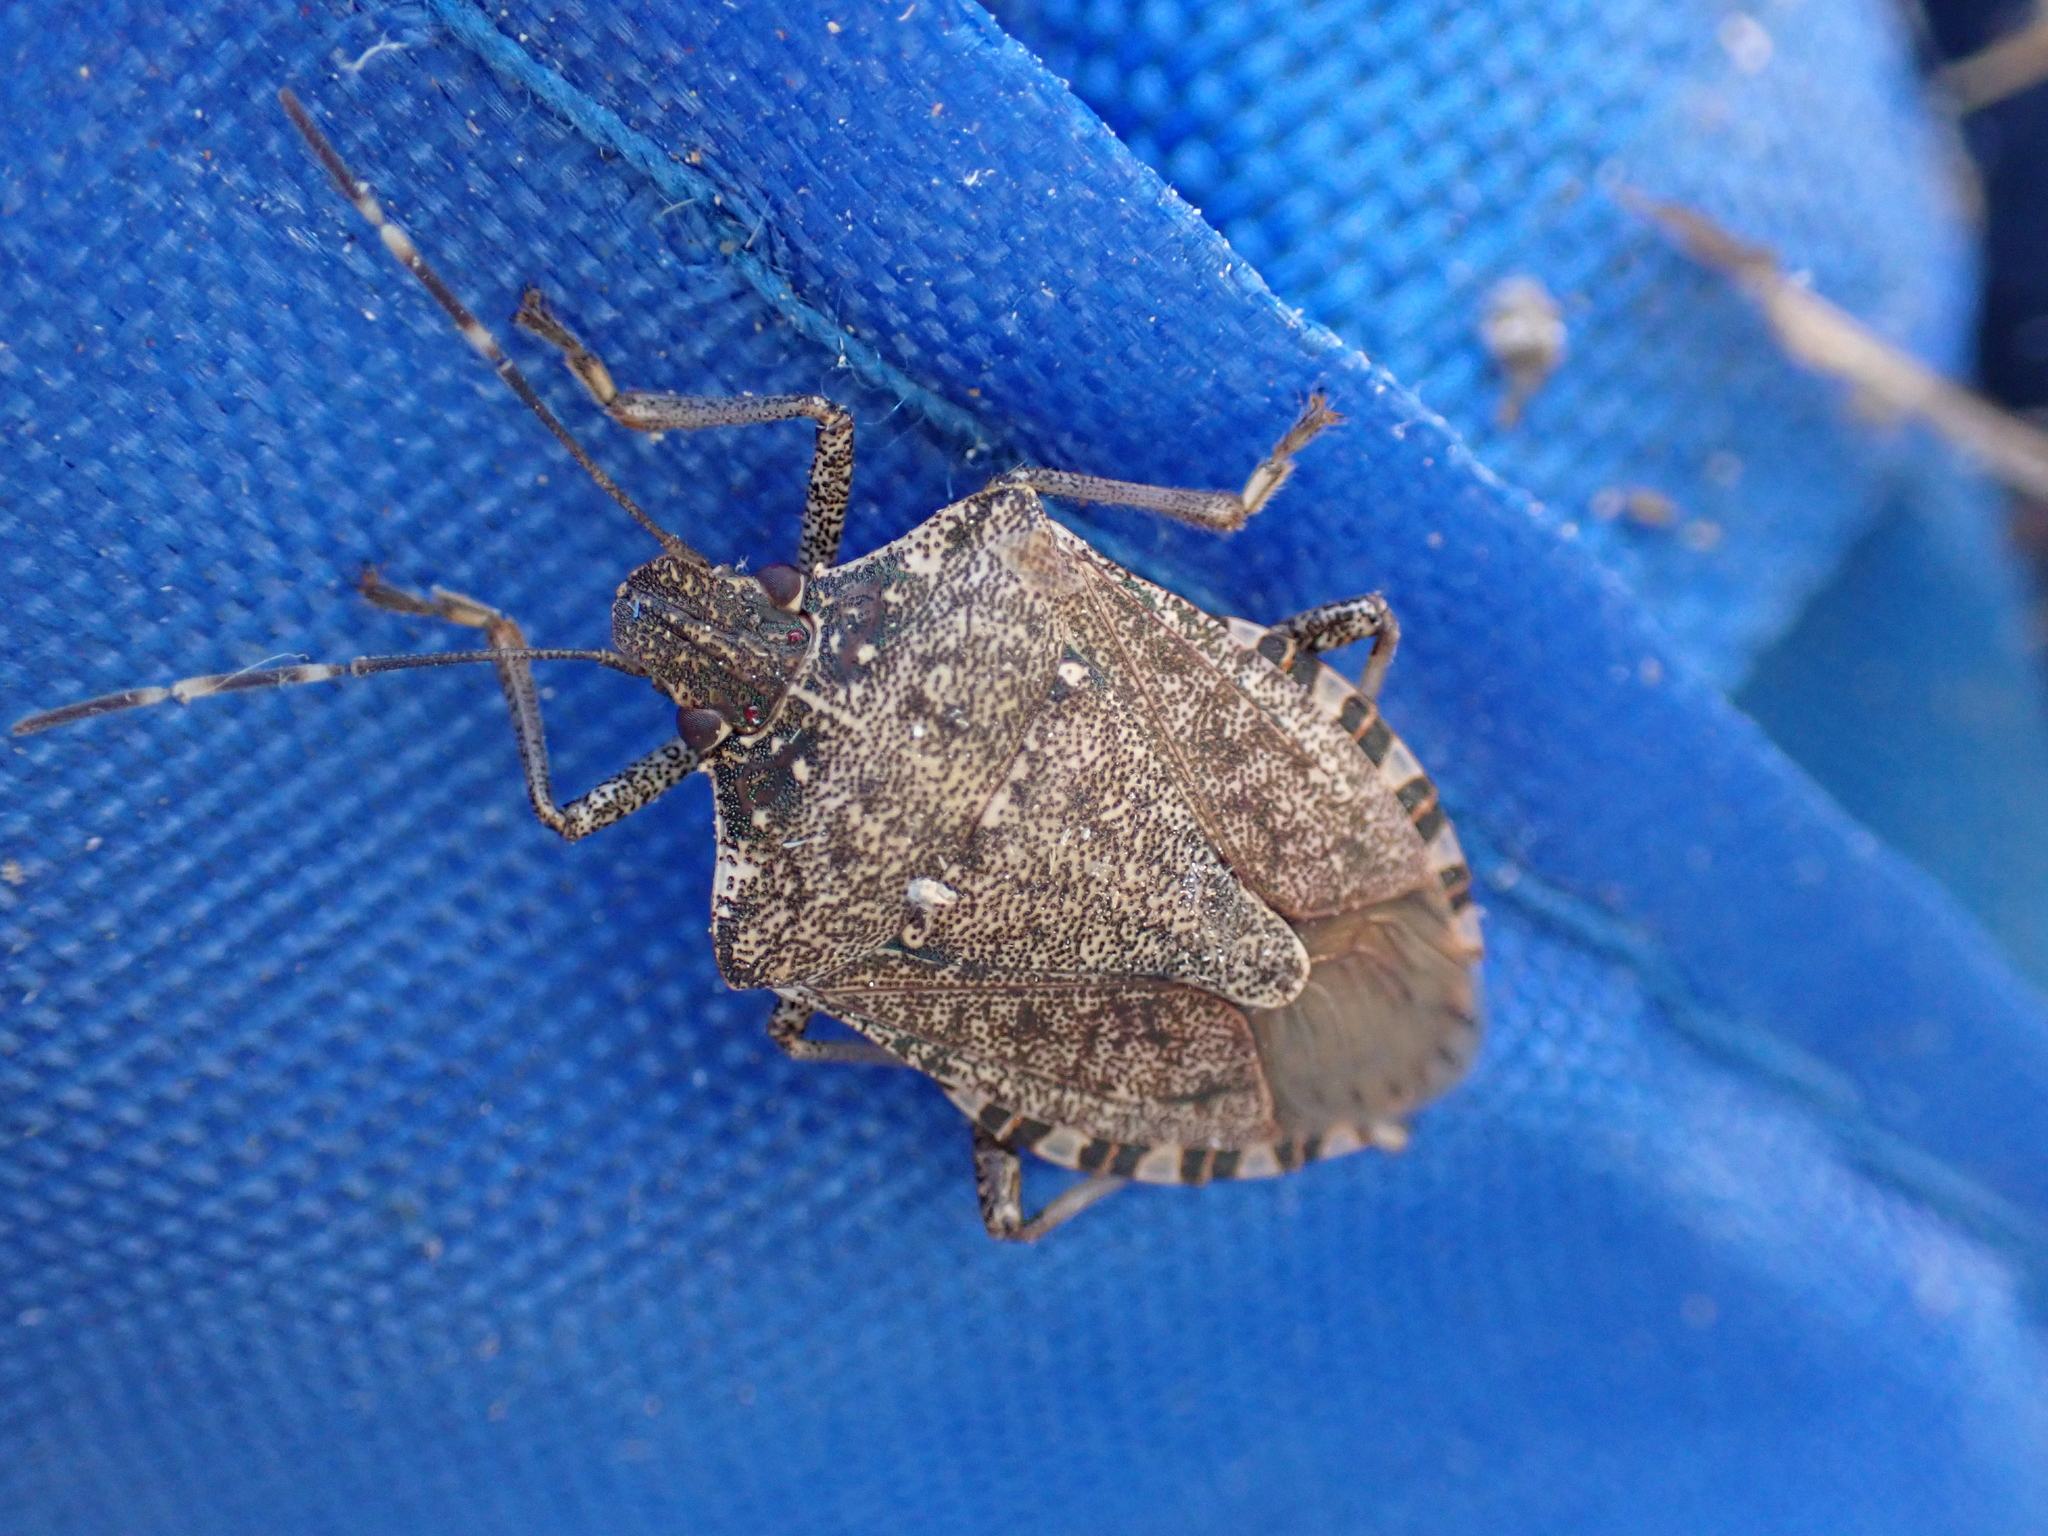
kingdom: Animalia
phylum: Arthropoda
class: Insecta
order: Hemiptera
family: Pentatomidae
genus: Halyomorpha
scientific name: Halyomorpha halys
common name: Brown marmorated stink bug
